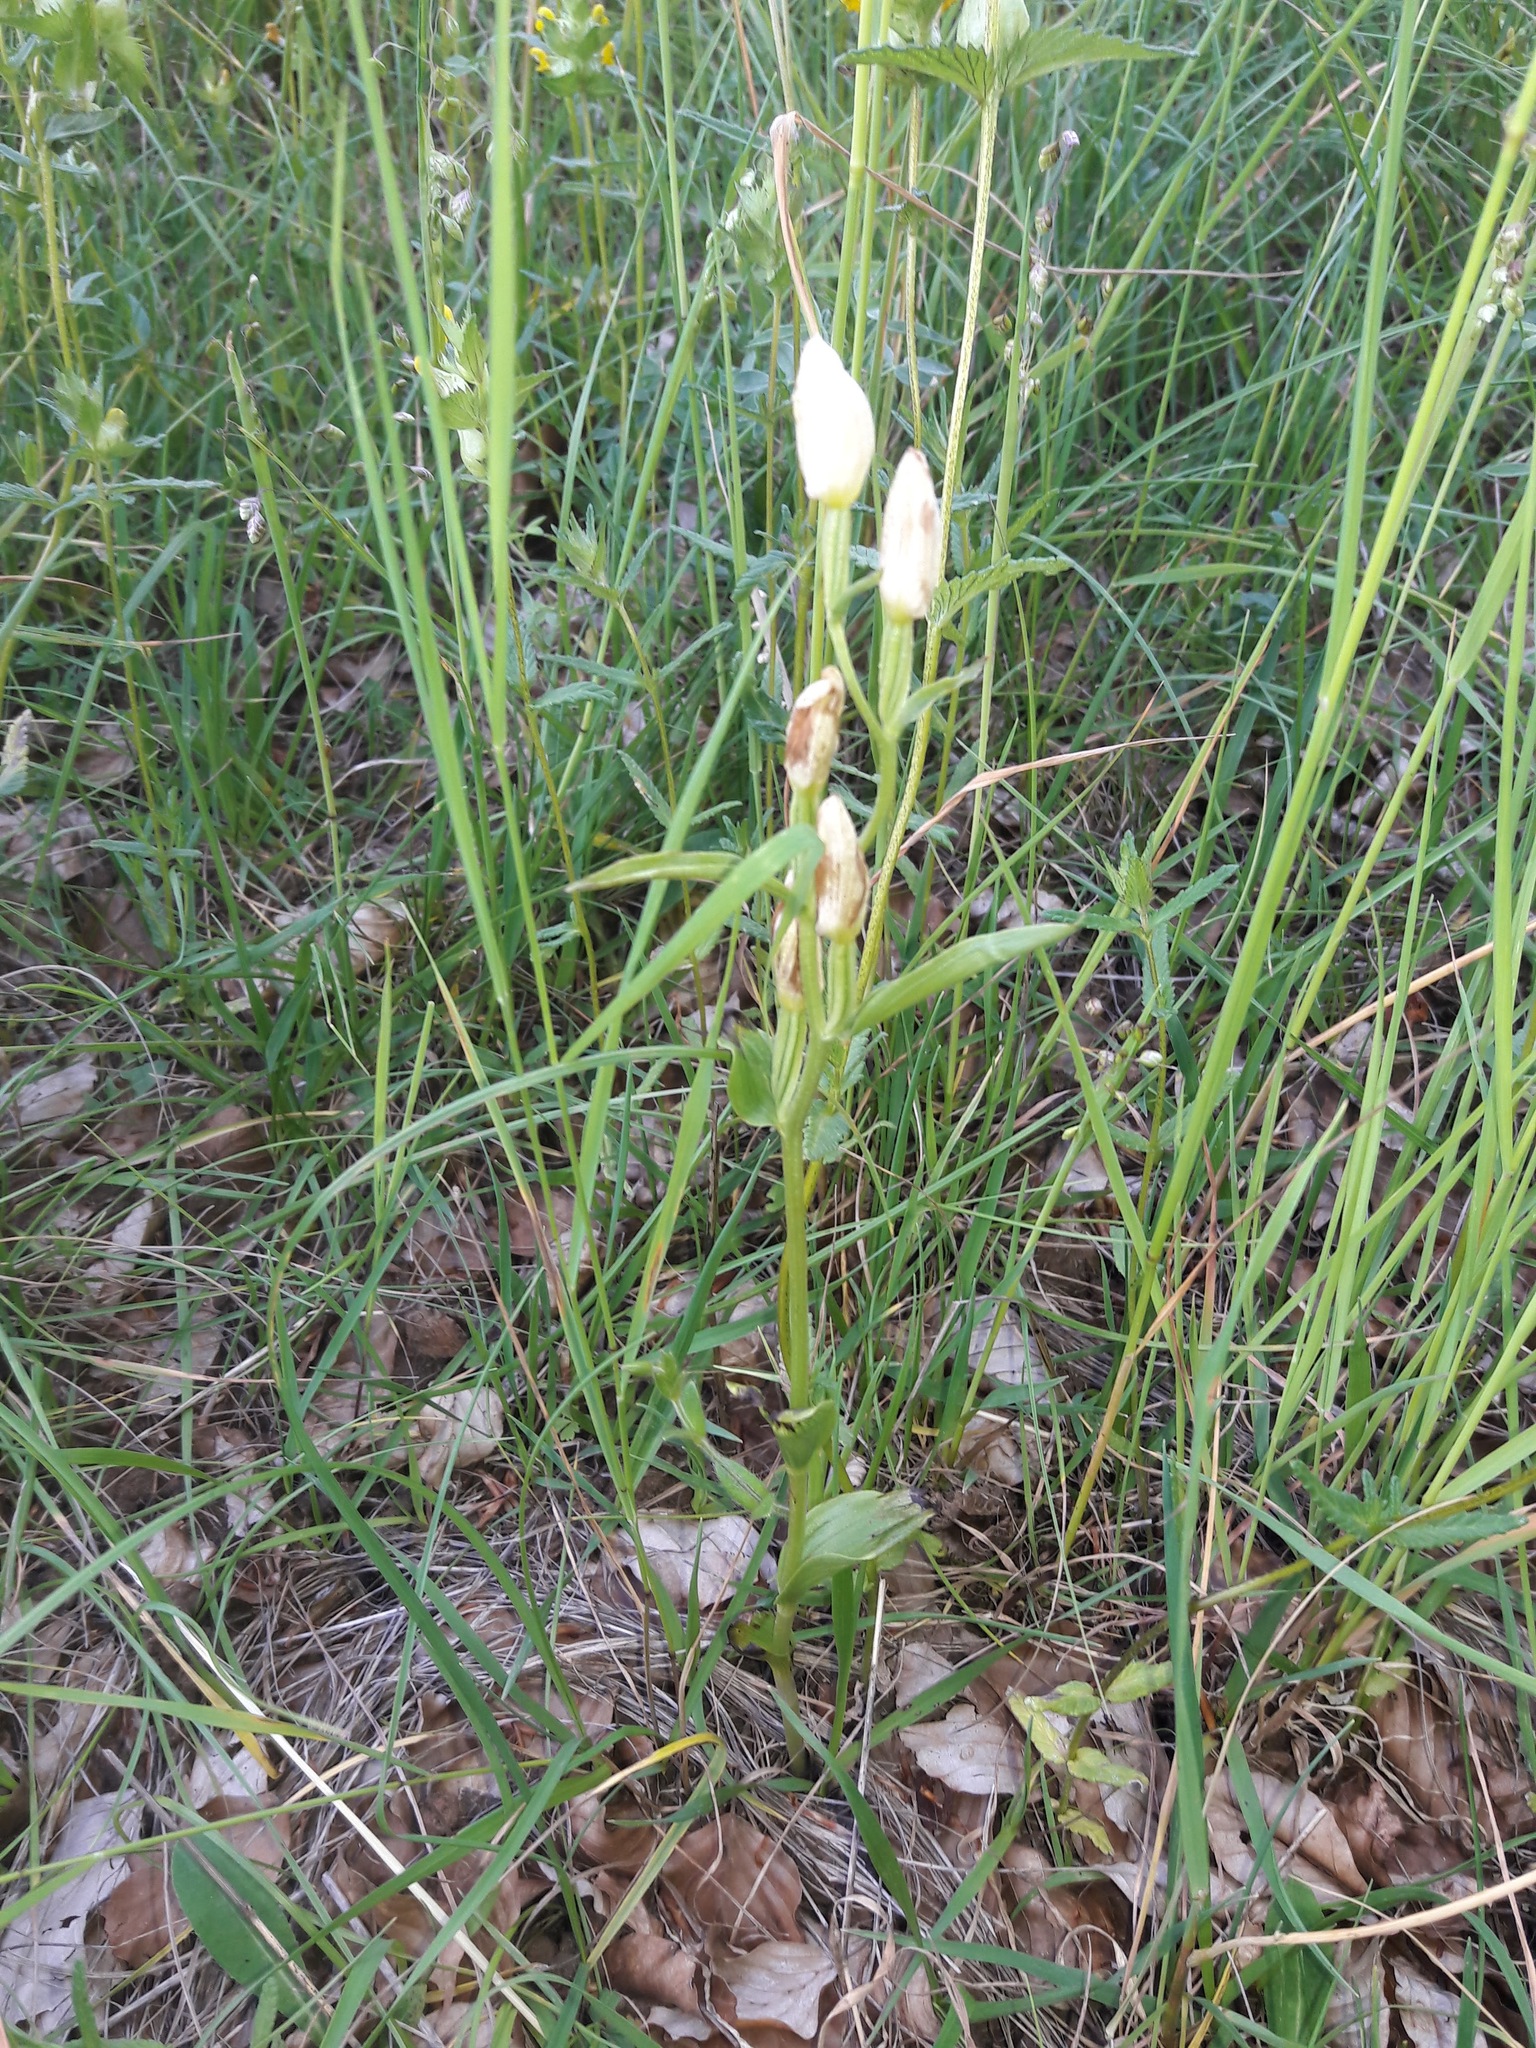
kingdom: Plantae
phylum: Tracheophyta
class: Liliopsida
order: Asparagales
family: Orchidaceae
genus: Cephalanthera
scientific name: Cephalanthera damasonium
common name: White helleborine
